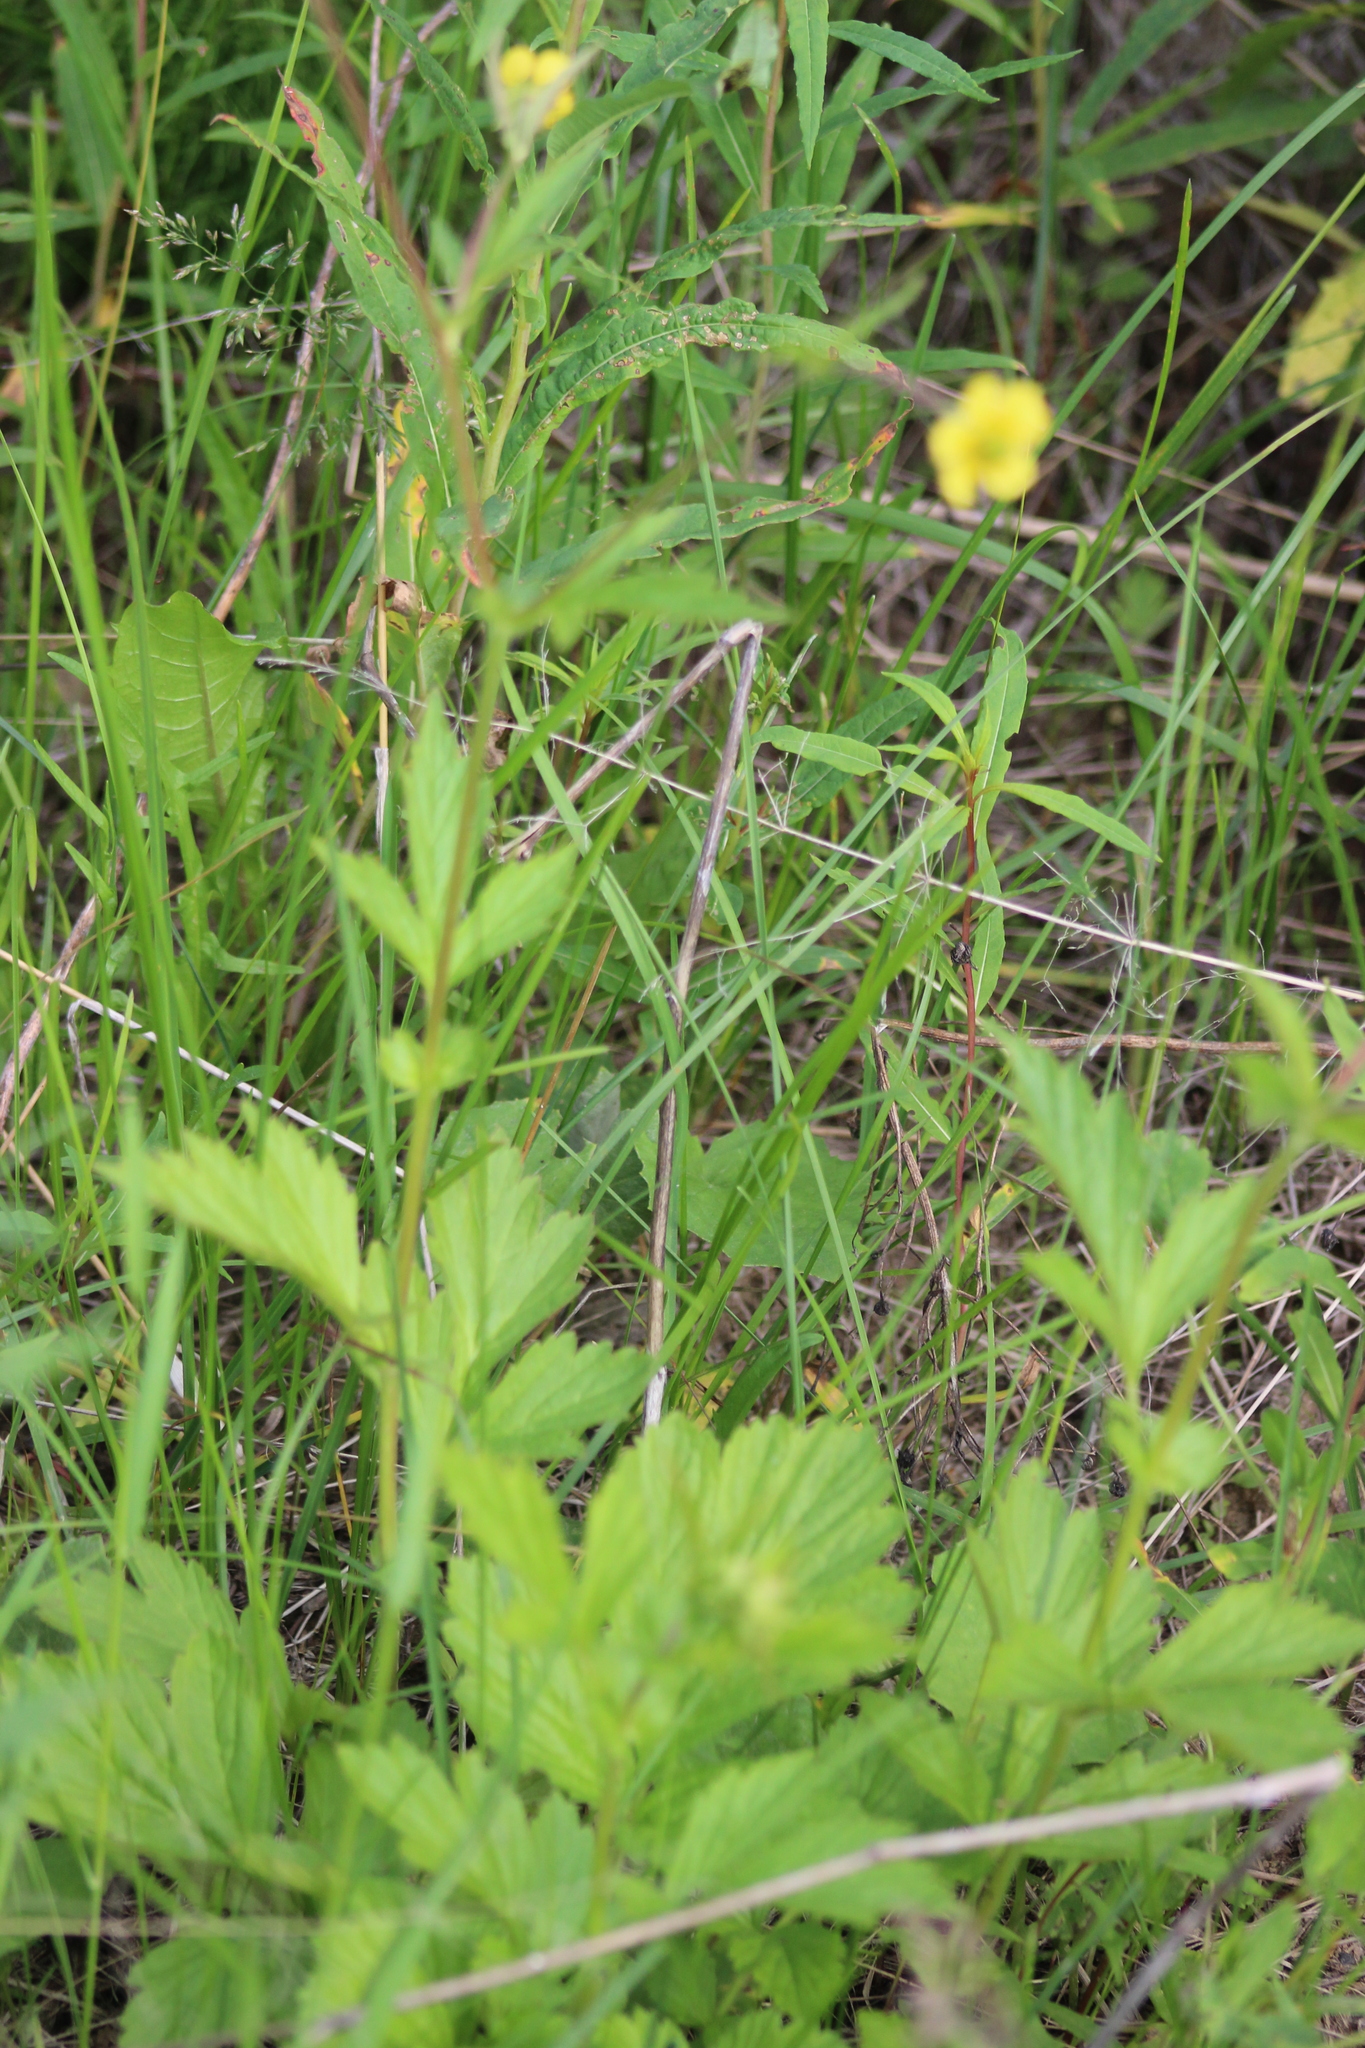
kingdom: Plantae
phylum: Tracheophyta
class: Magnoliopsida
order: Rosales
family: Rosaceae
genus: Geum
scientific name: Geum aleppicum
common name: Yellow avens
